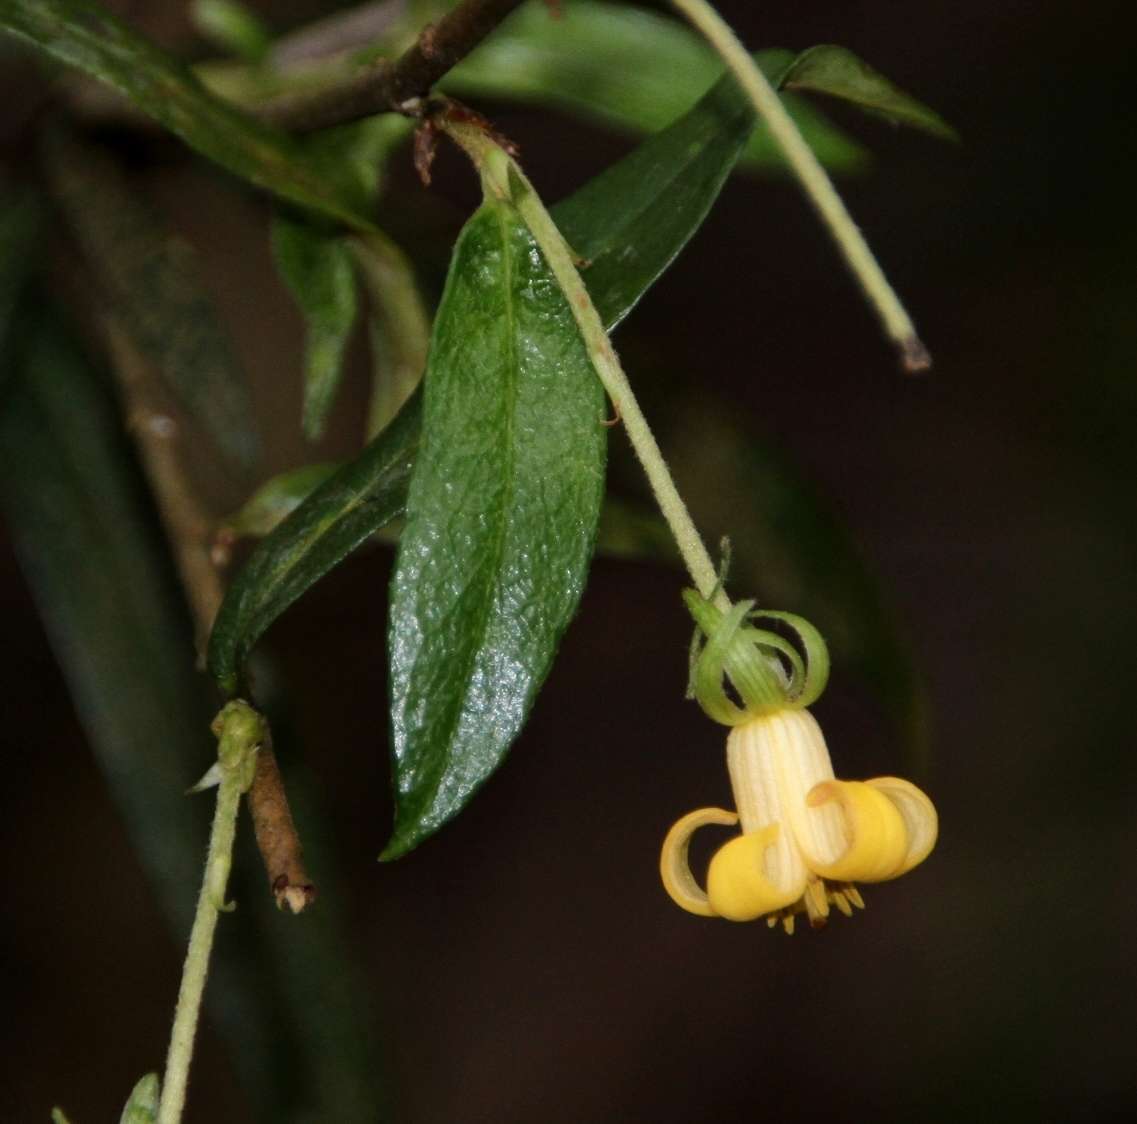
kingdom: Plantae
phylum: Tracheophyta
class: Magnoliopsida
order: Apiales
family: Pittosporaceae
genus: Pittosporum
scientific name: Pittosporum bicolor
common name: Tallowwood
